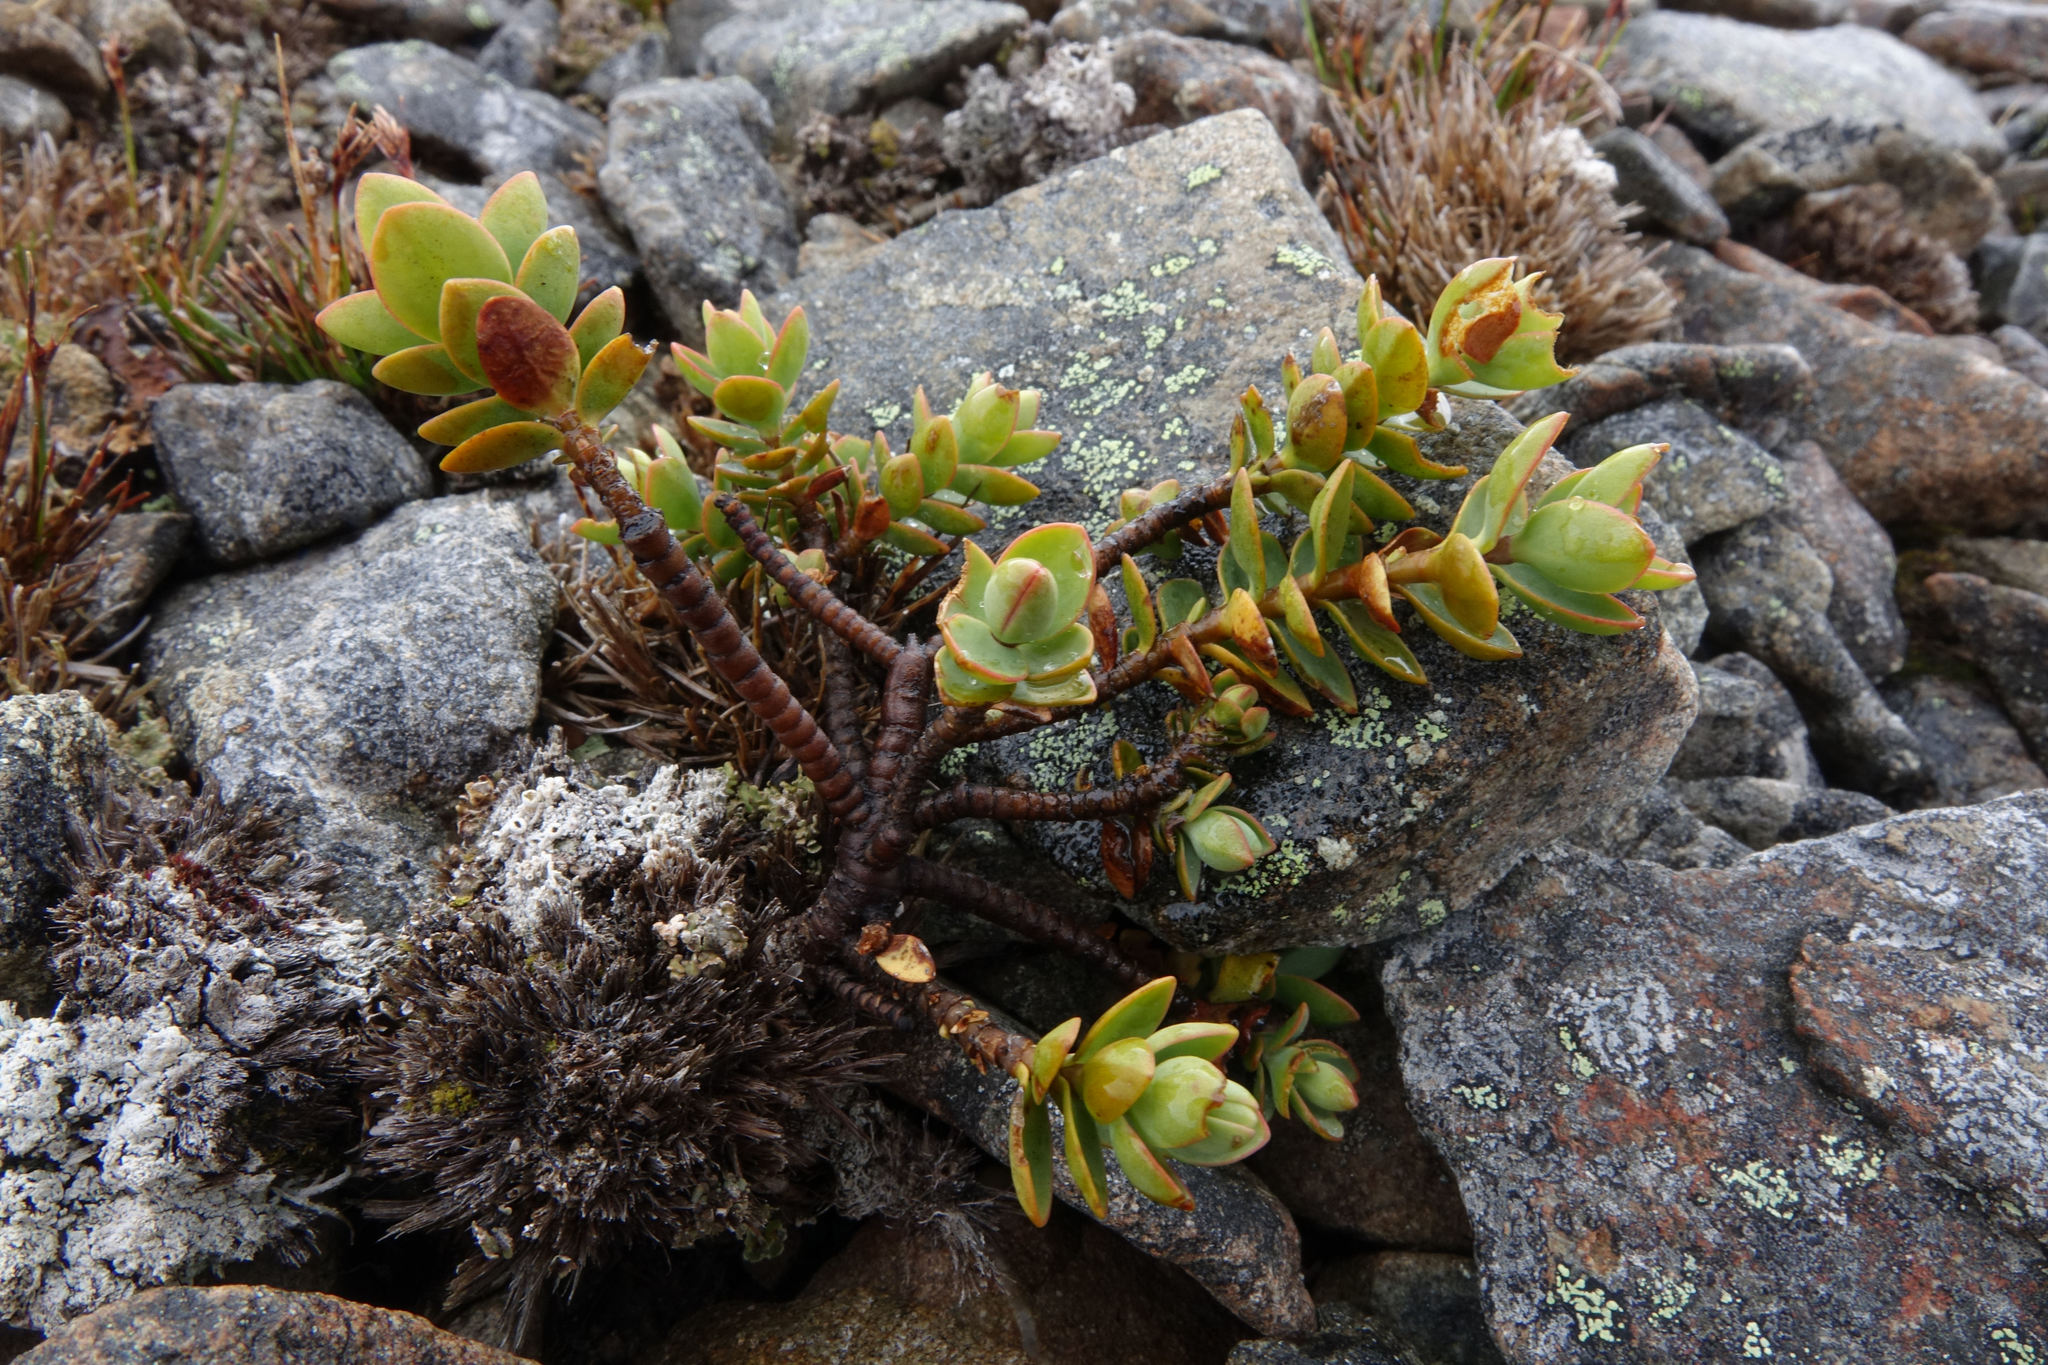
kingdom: Plantae
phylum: Tracheophyta
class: Magnoliopsida
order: Lamiales
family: Plantaginaceae
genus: Veronica
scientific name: Veronica pinguifolia
